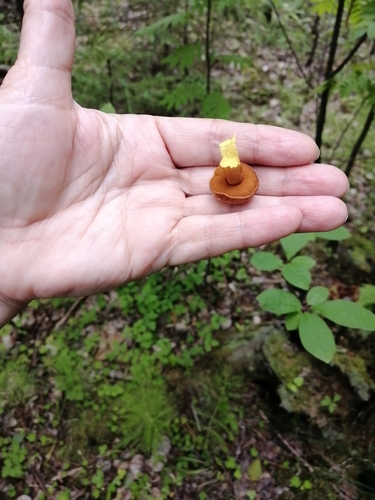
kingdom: Fungi
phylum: Basidiomycota
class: Agaricomycetes
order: Boletales
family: Boletaceae
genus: Chalciporus
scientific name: Chalciporus piperatus
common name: Peppery bolete
